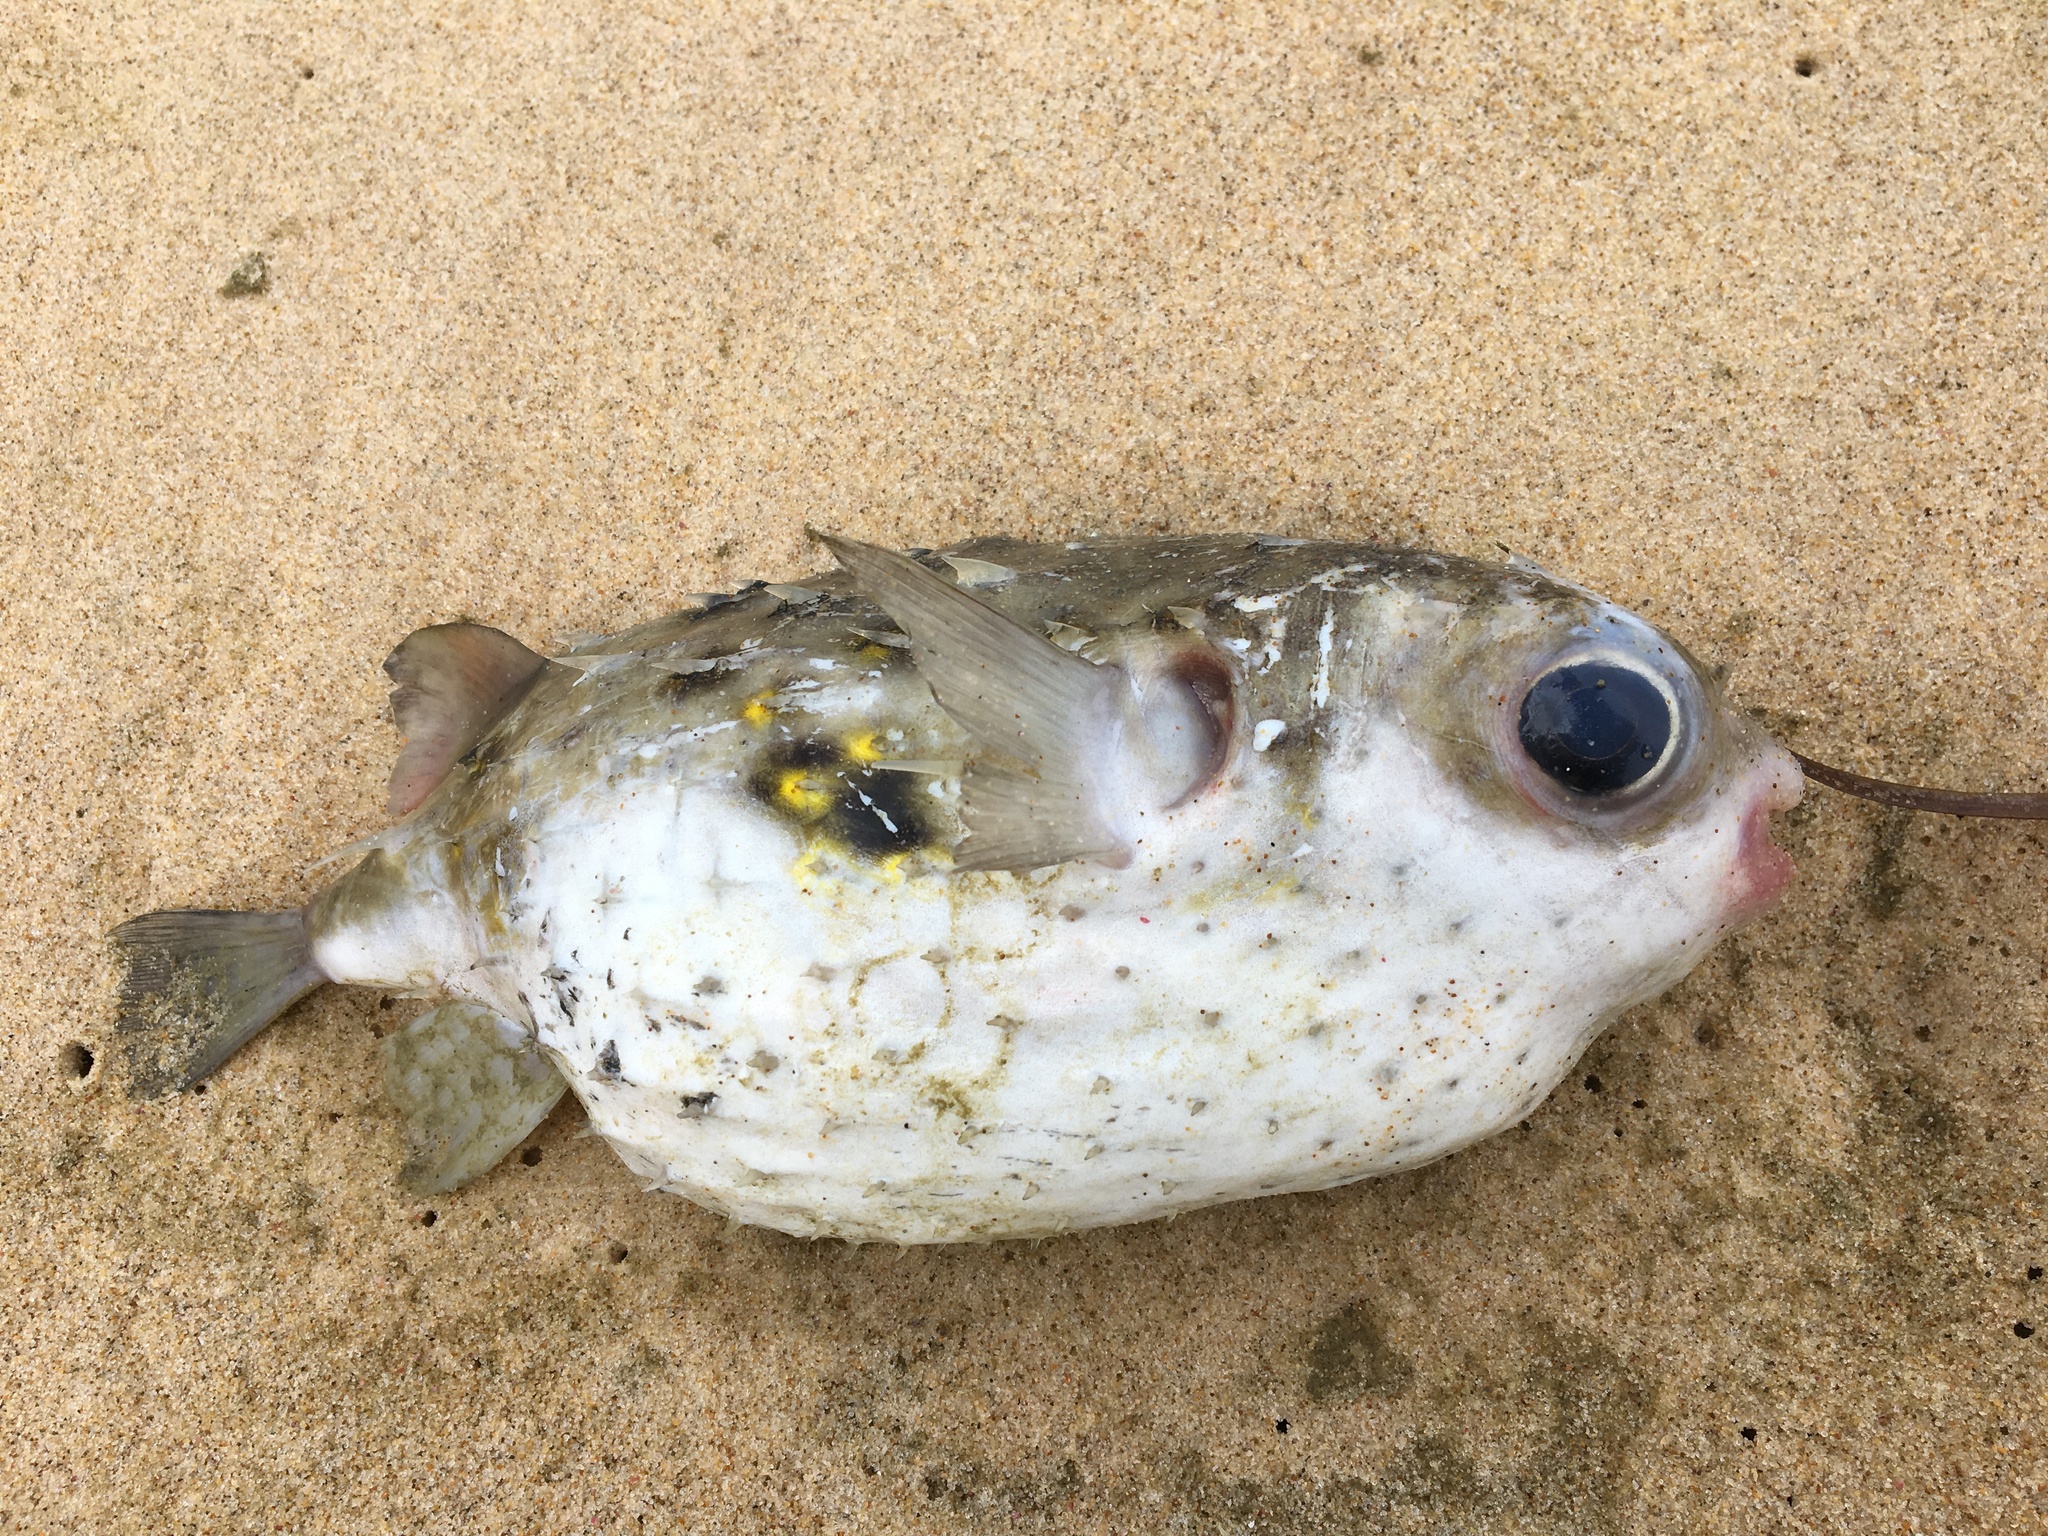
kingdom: Animalia
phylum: Chordata
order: Tetraodontiformes
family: Diodontidae
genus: Allomycterus
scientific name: Allomycterus pilatus
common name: No common name
